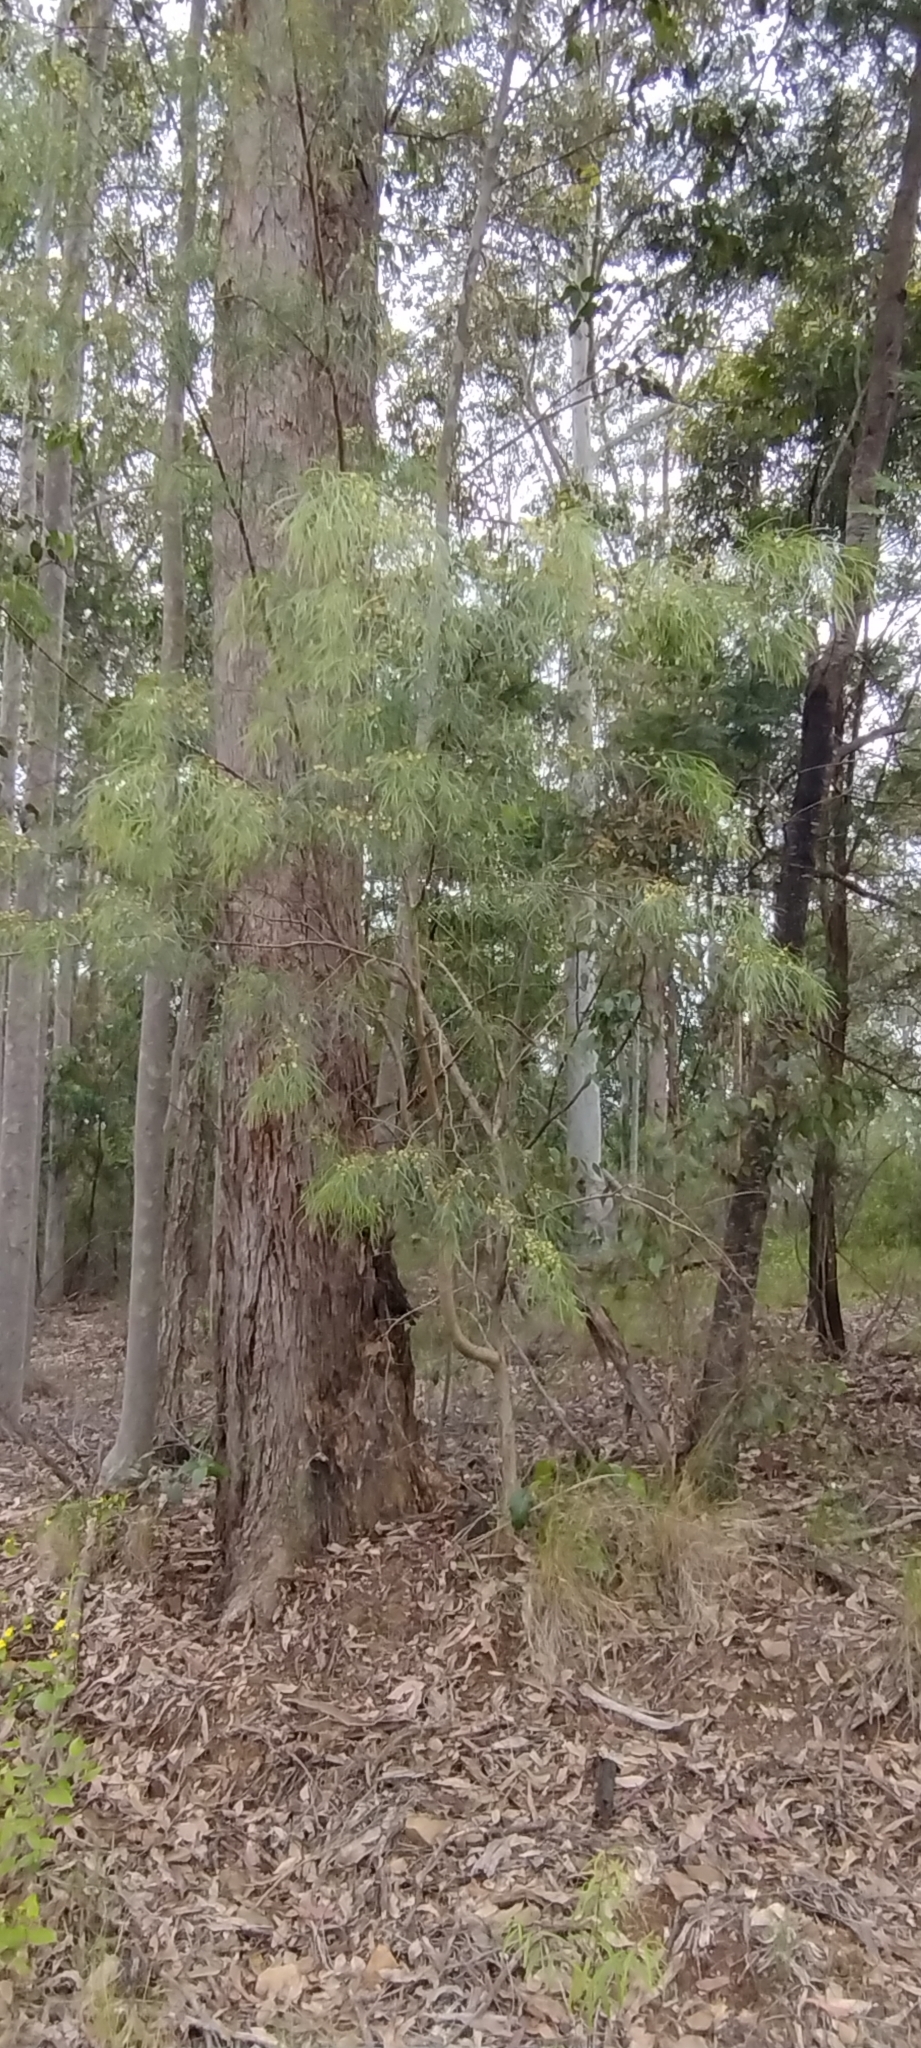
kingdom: Plantae
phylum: Tracheophyta
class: Magnoliopsida
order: Fabales
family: Fabaceae
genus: Acacia
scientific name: Acacia cognata
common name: Narrow-leaf bower wattle
